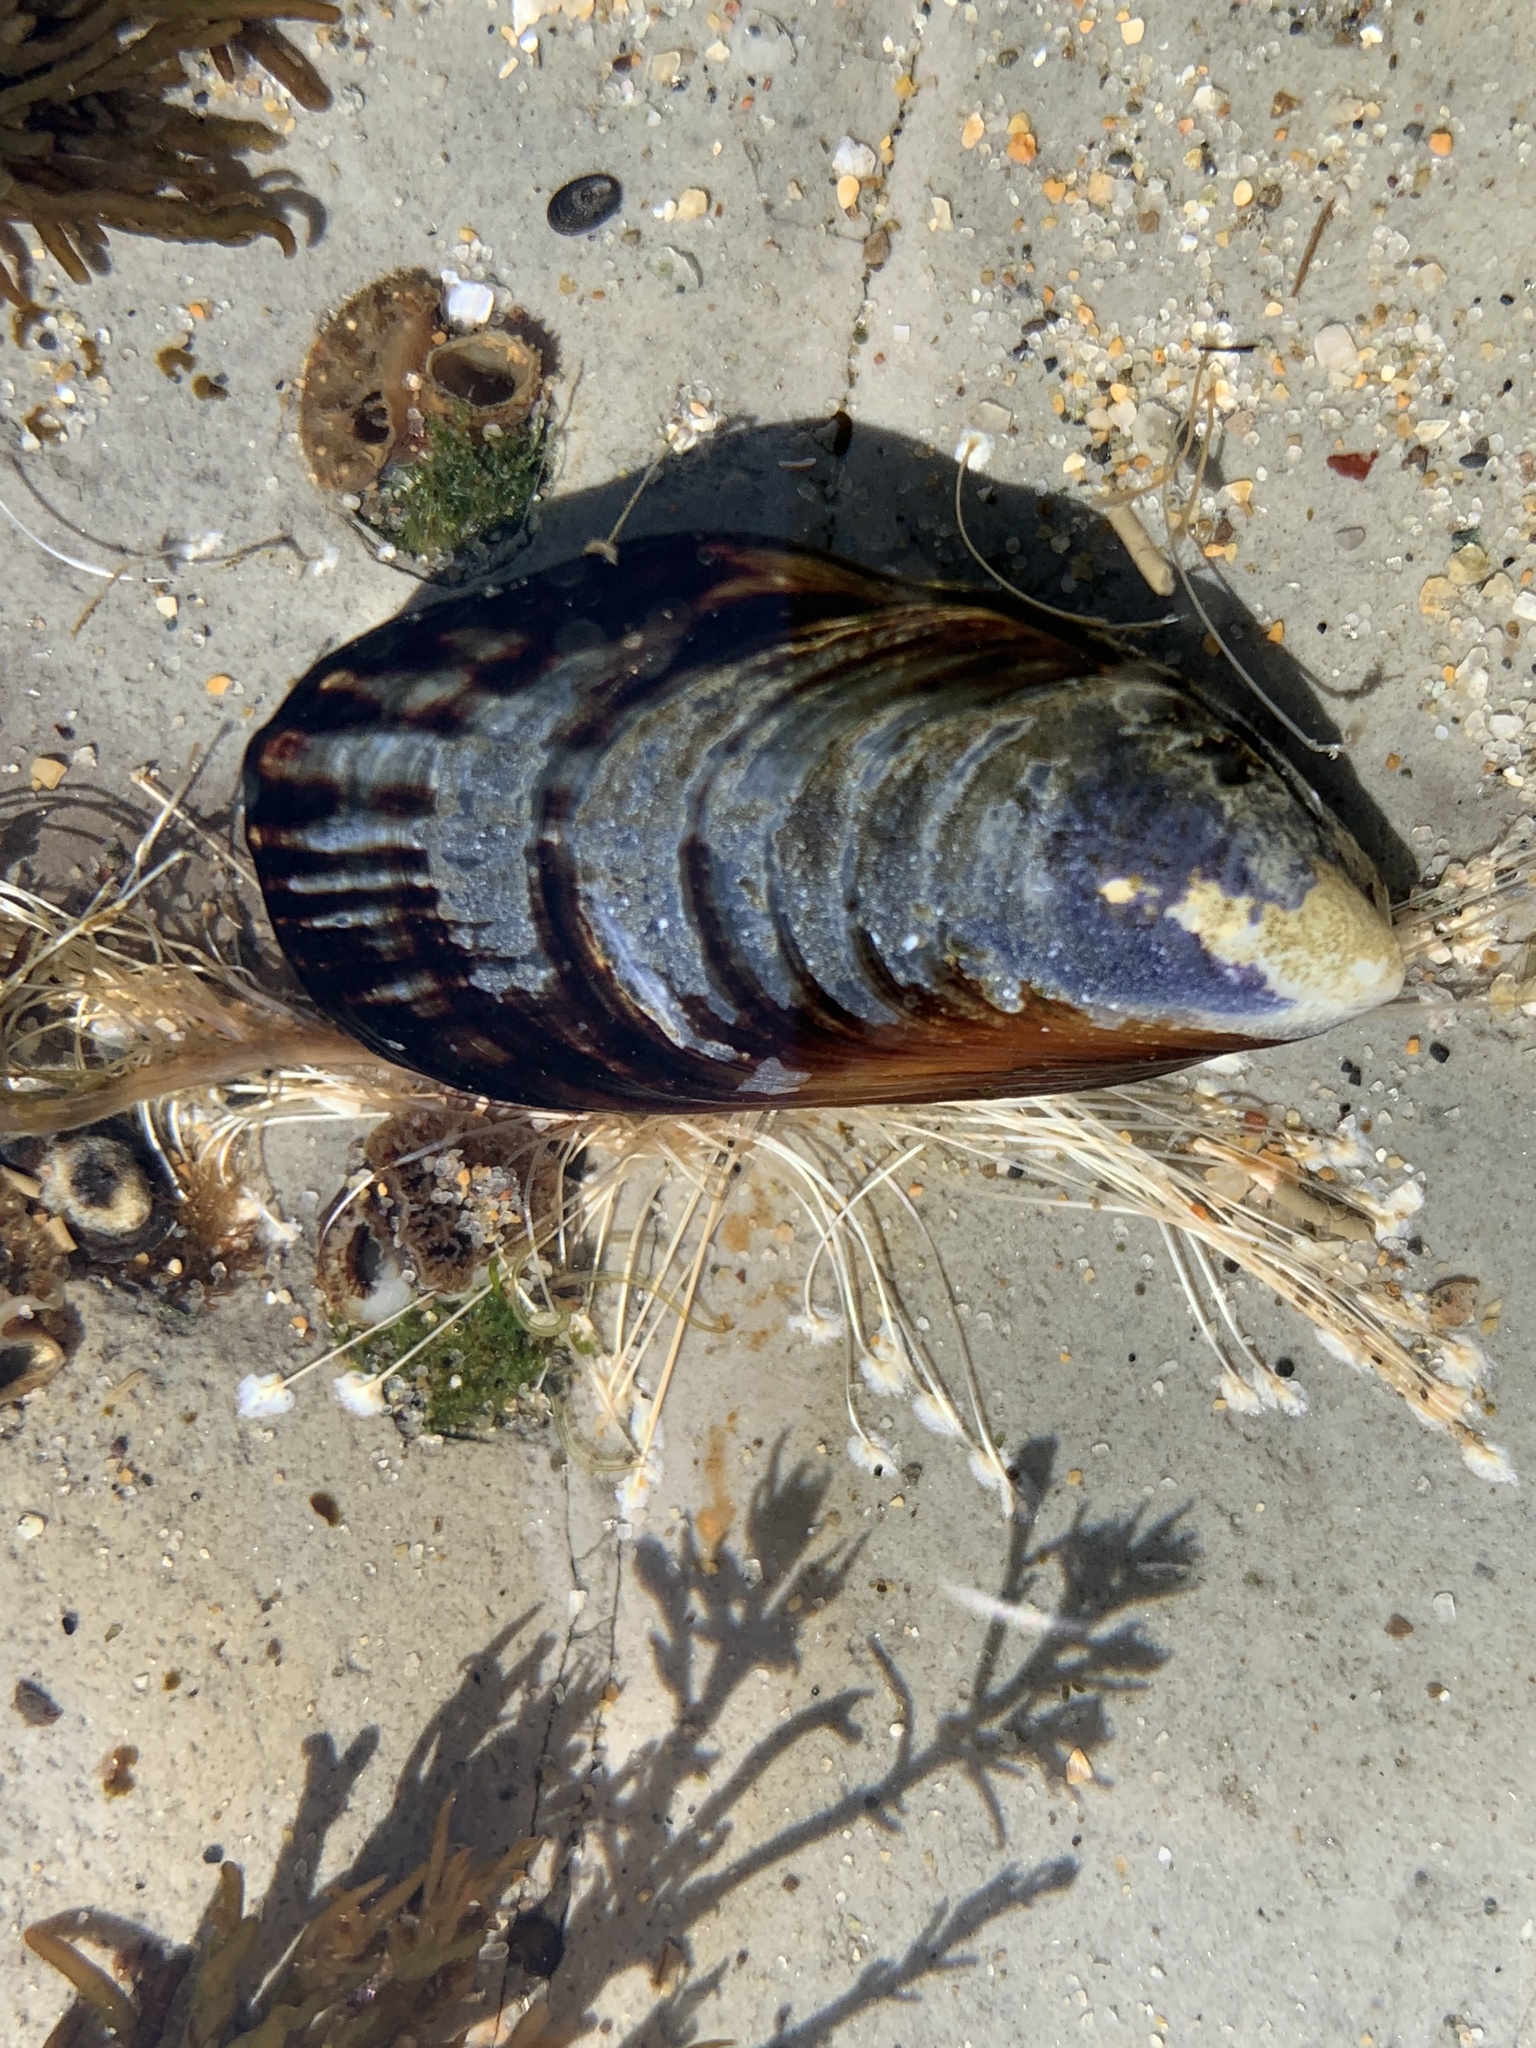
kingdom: Animalia
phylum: Mollusca
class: Bivalvia
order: Mytilida
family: Mytilidae
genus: Mytilus
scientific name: Mytilus californianus
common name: California mussel
